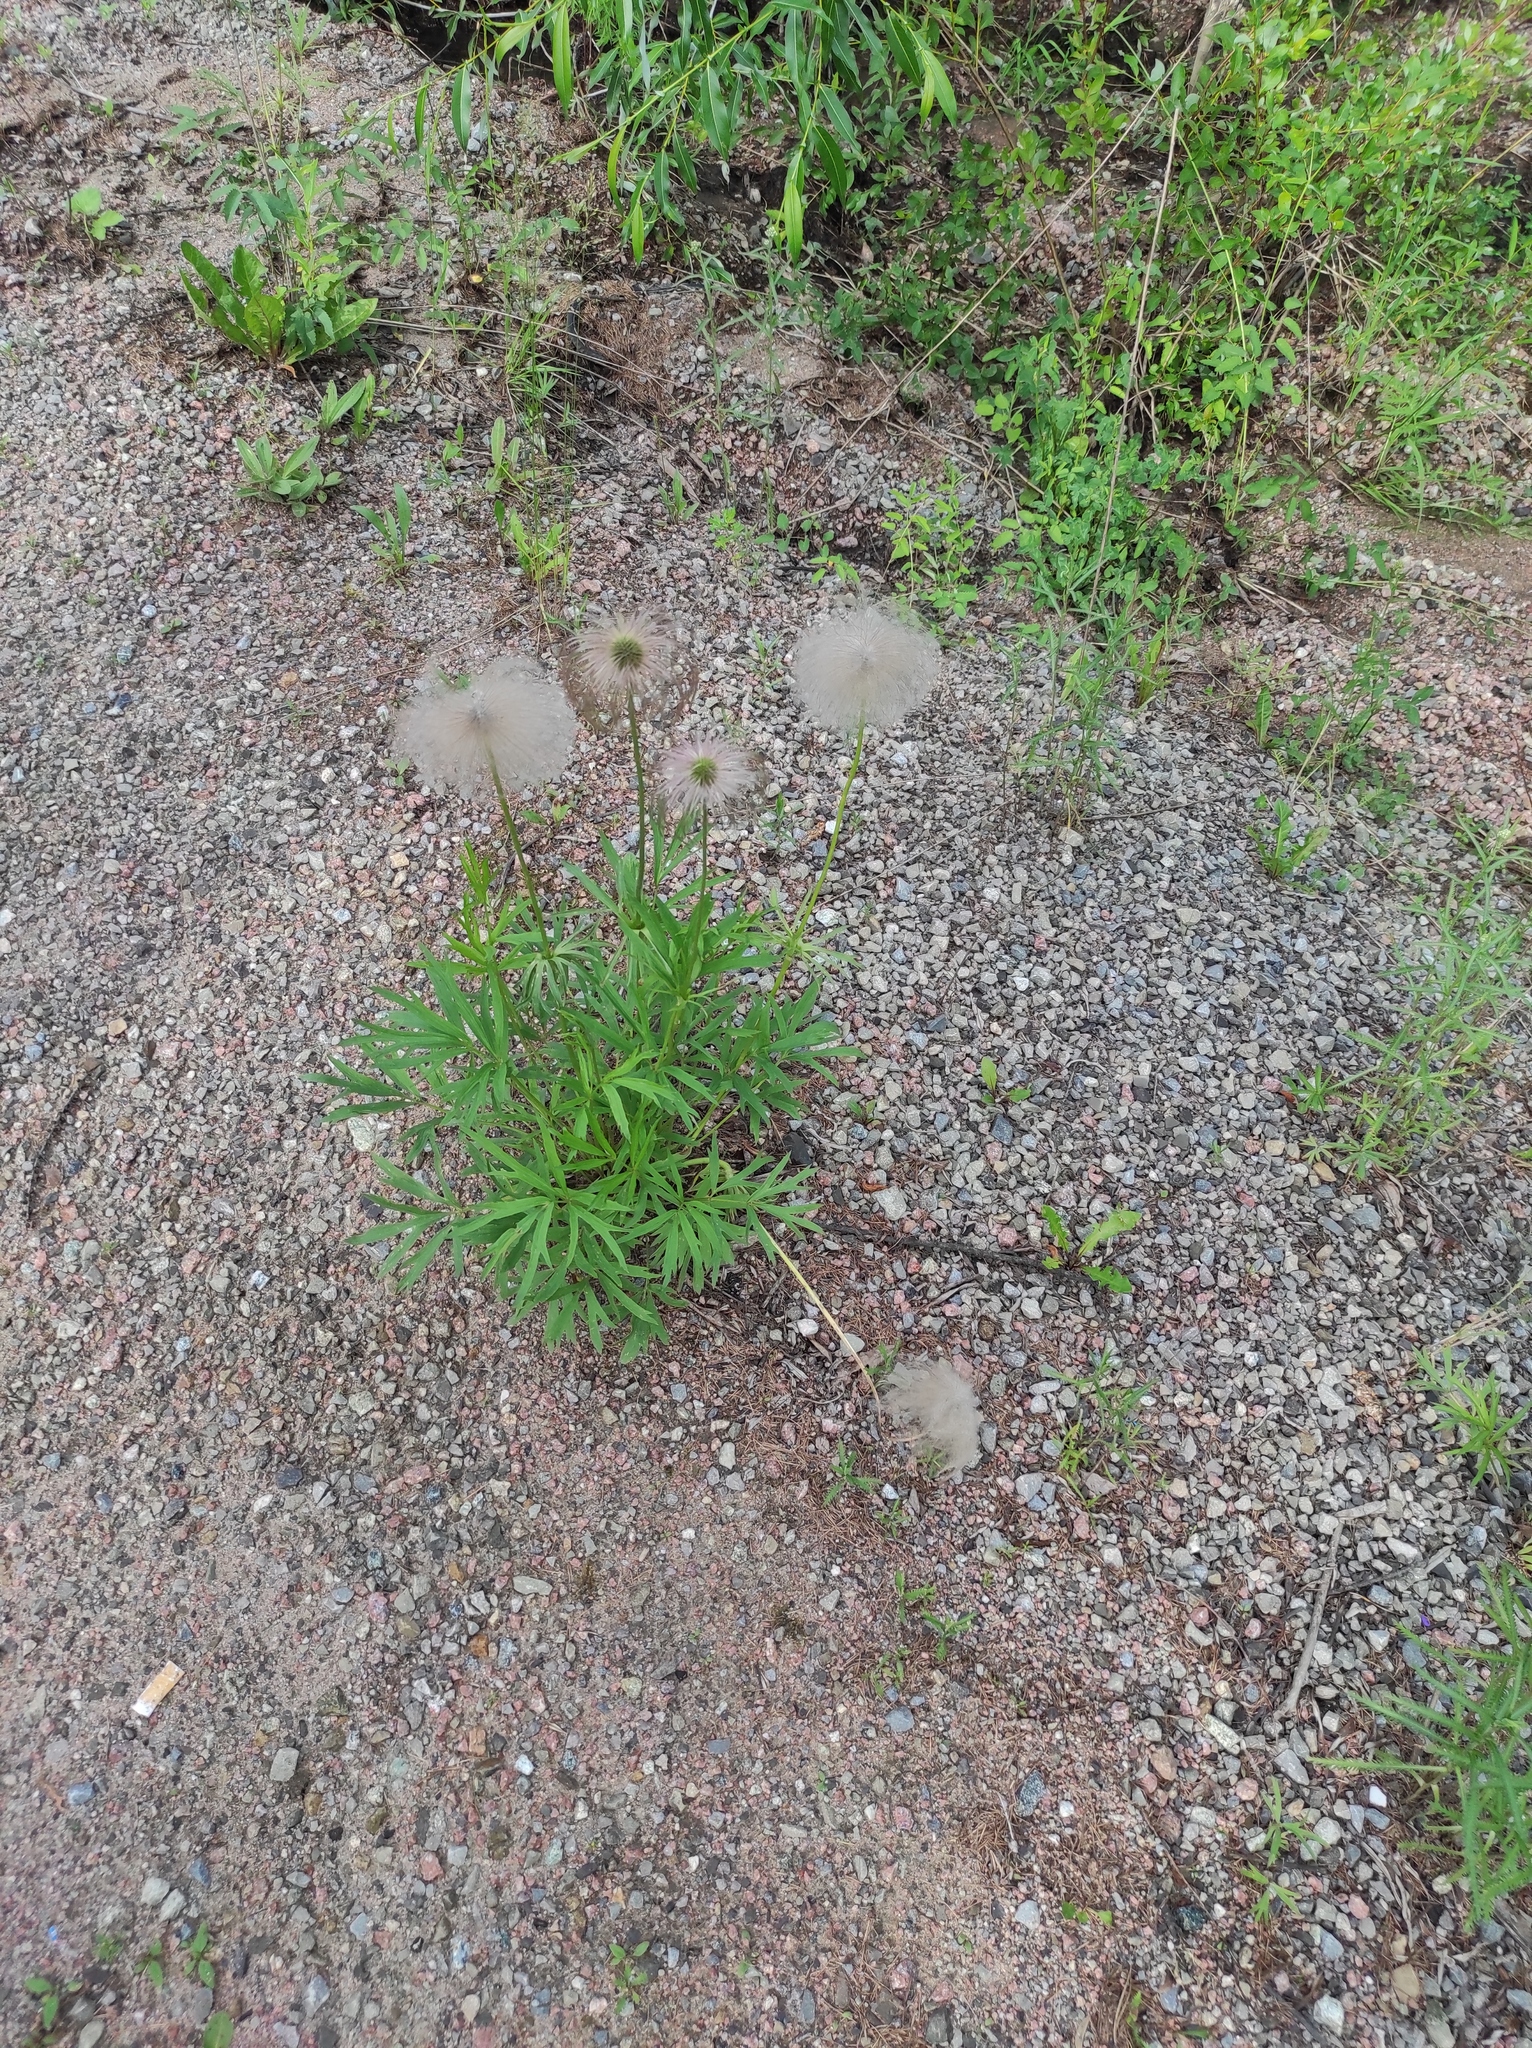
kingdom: Plantae
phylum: Tracheophyta
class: Magnoliopsida
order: Ranunculales
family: Ranunculaceae
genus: Pulsatilla
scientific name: Pulsatilla dahurica
